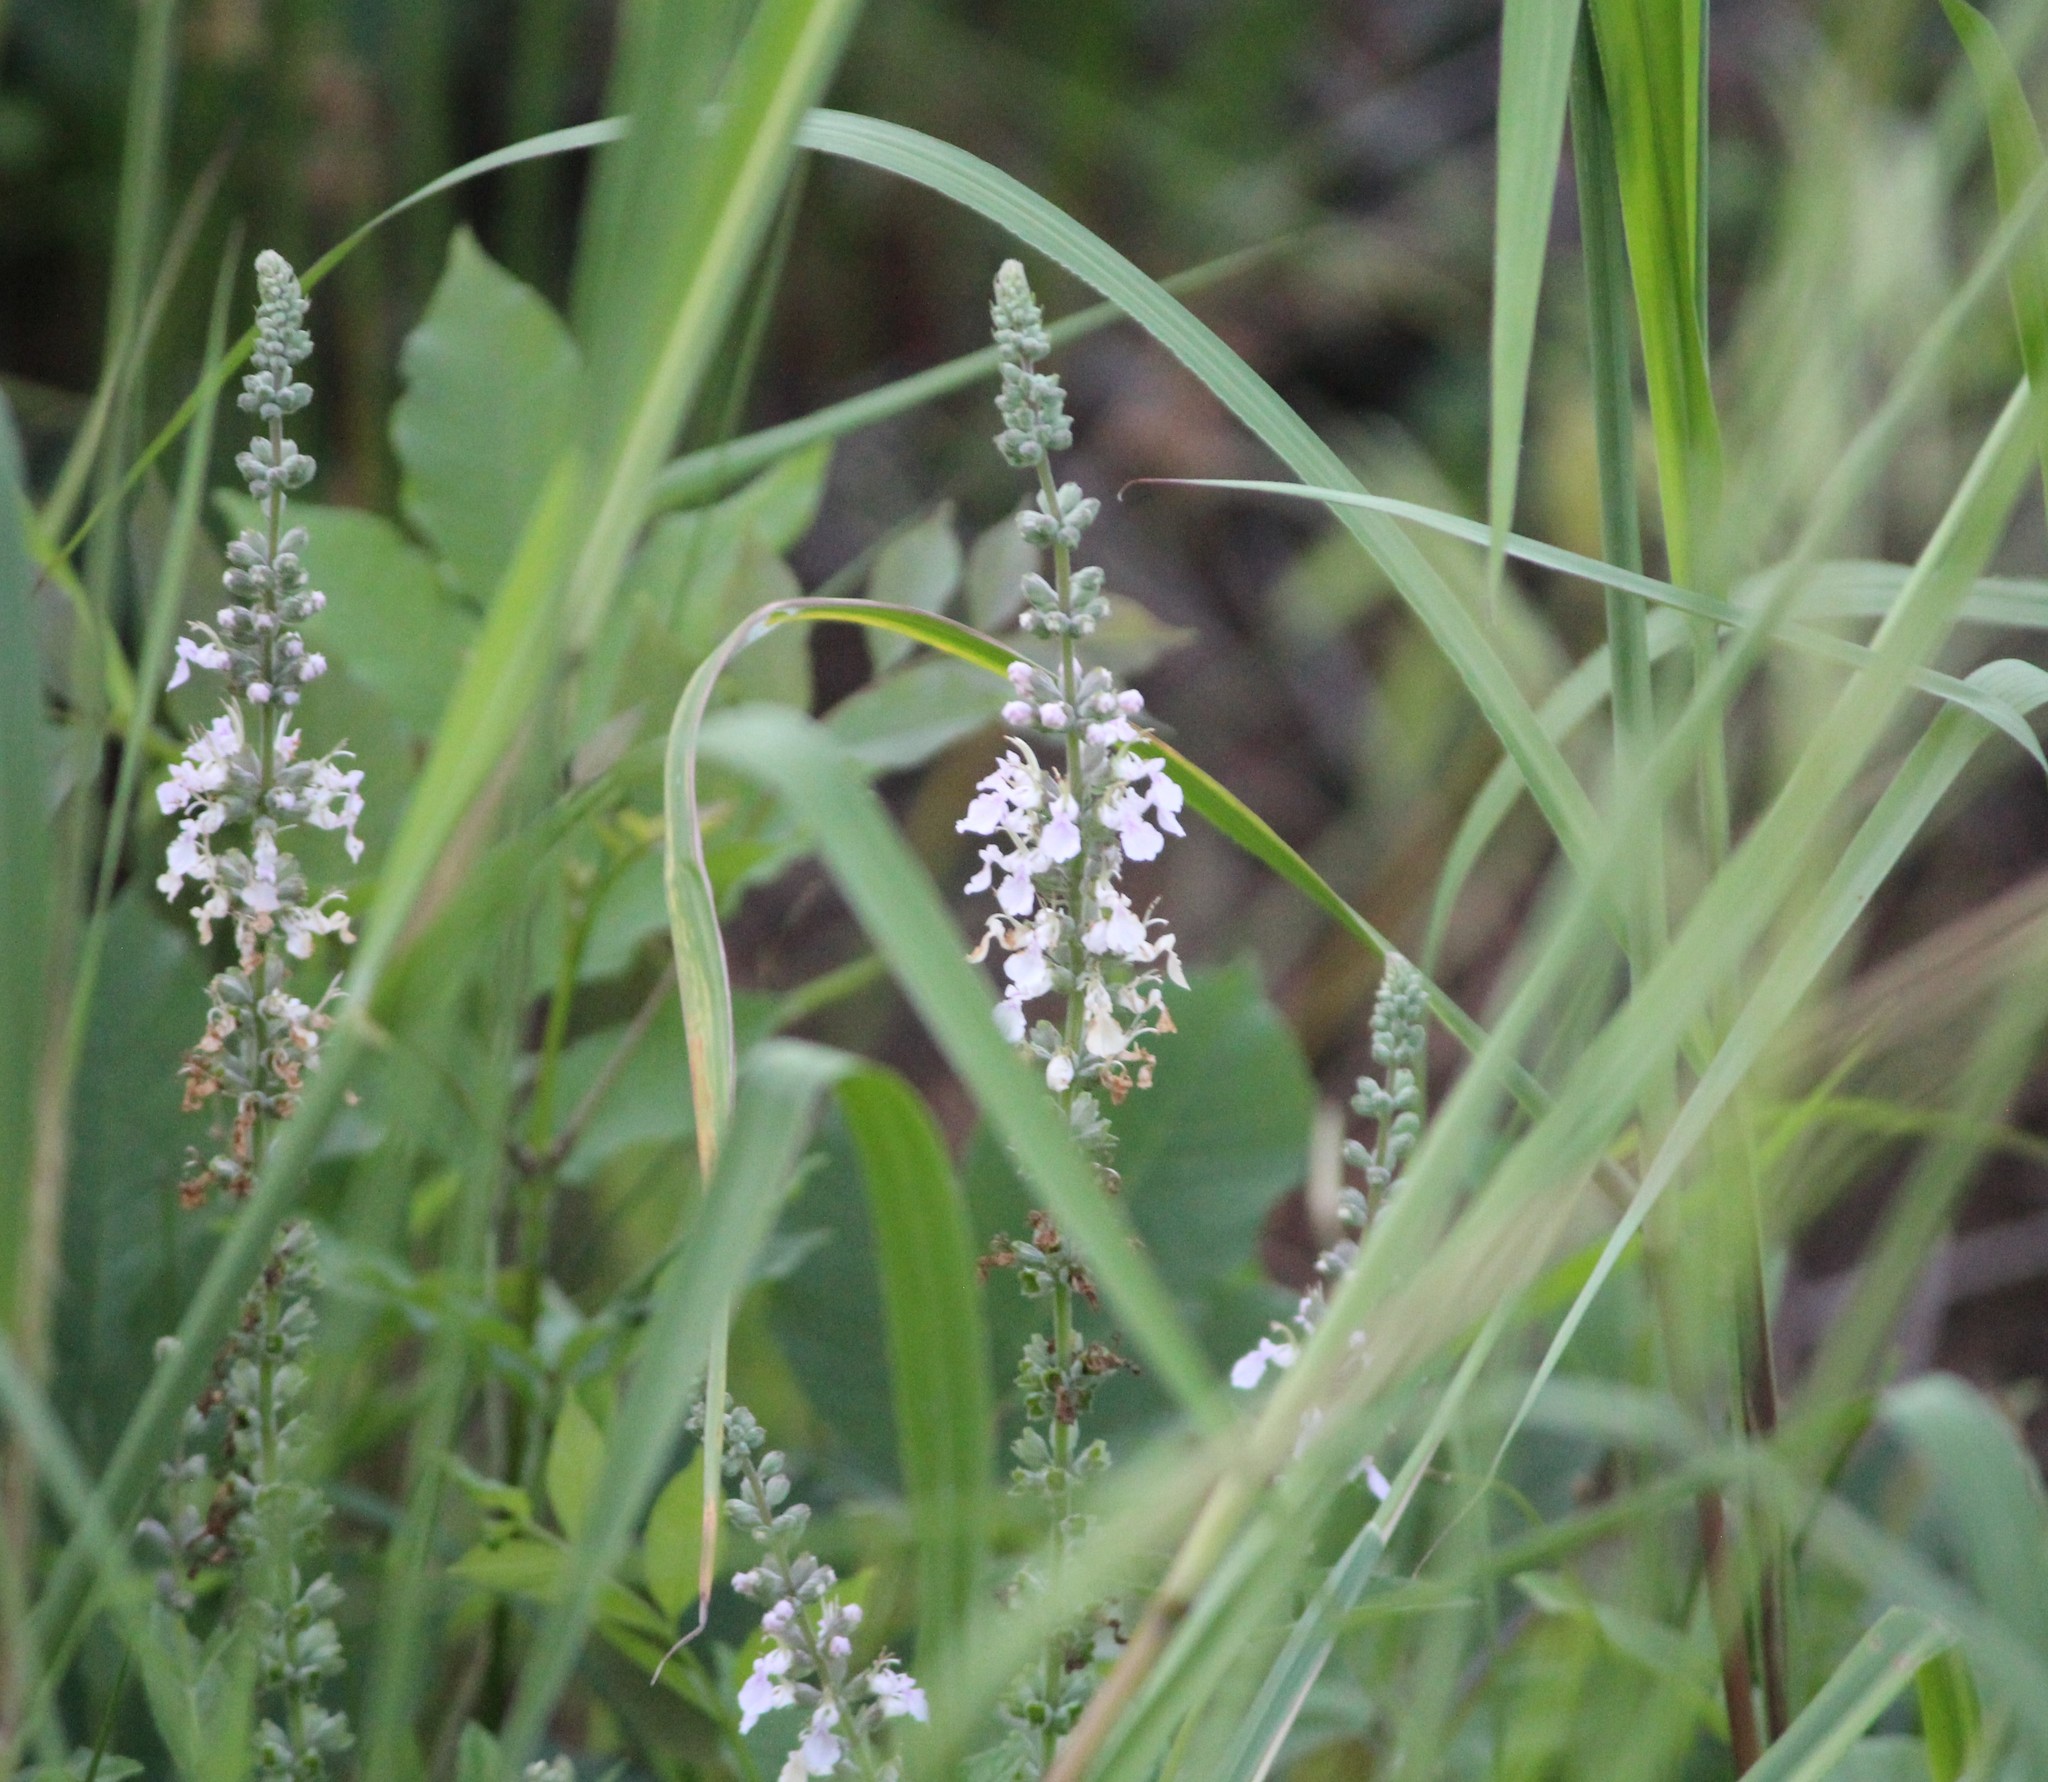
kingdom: Plantae
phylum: Tracheophyta
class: Magnoliopsida
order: Lamiales
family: Lamiaceae
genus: Teucrium
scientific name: Teucrium canadense
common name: American germander
